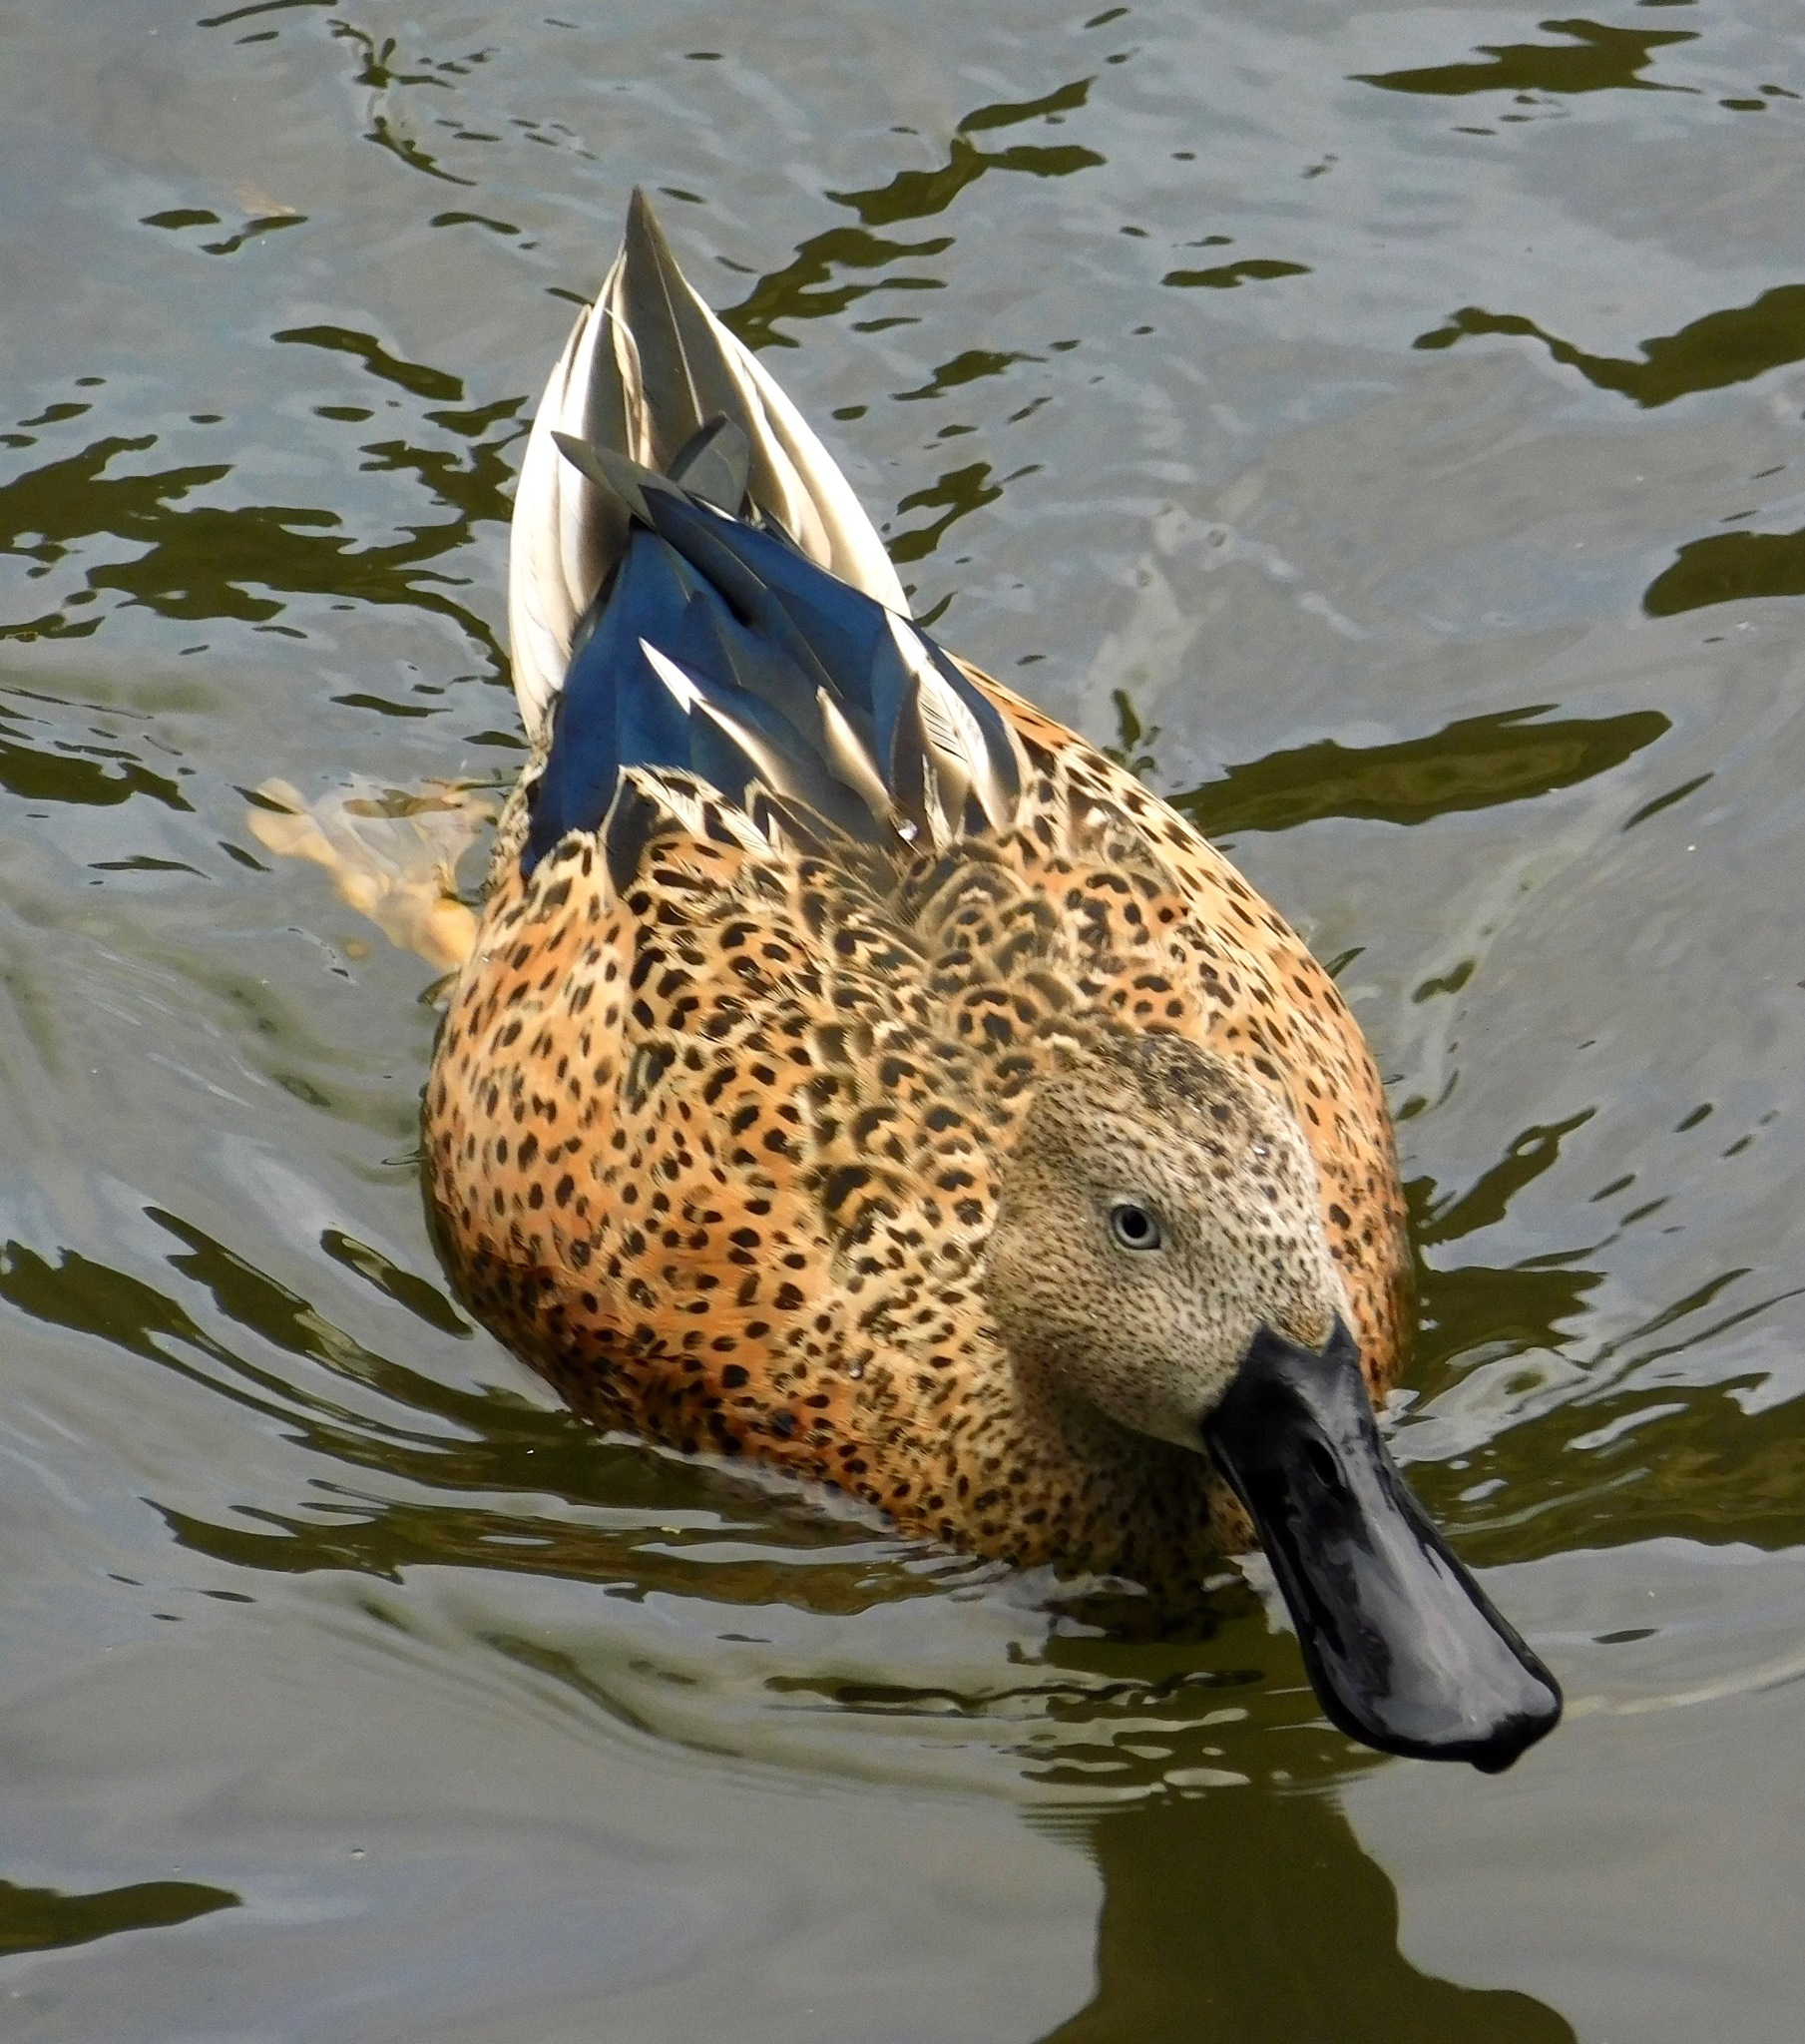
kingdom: Animalia
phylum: Chordata
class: Aves
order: Anseriformes
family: Anatidae
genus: Spatula
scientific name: Spatula platalea
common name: Red shoveler
